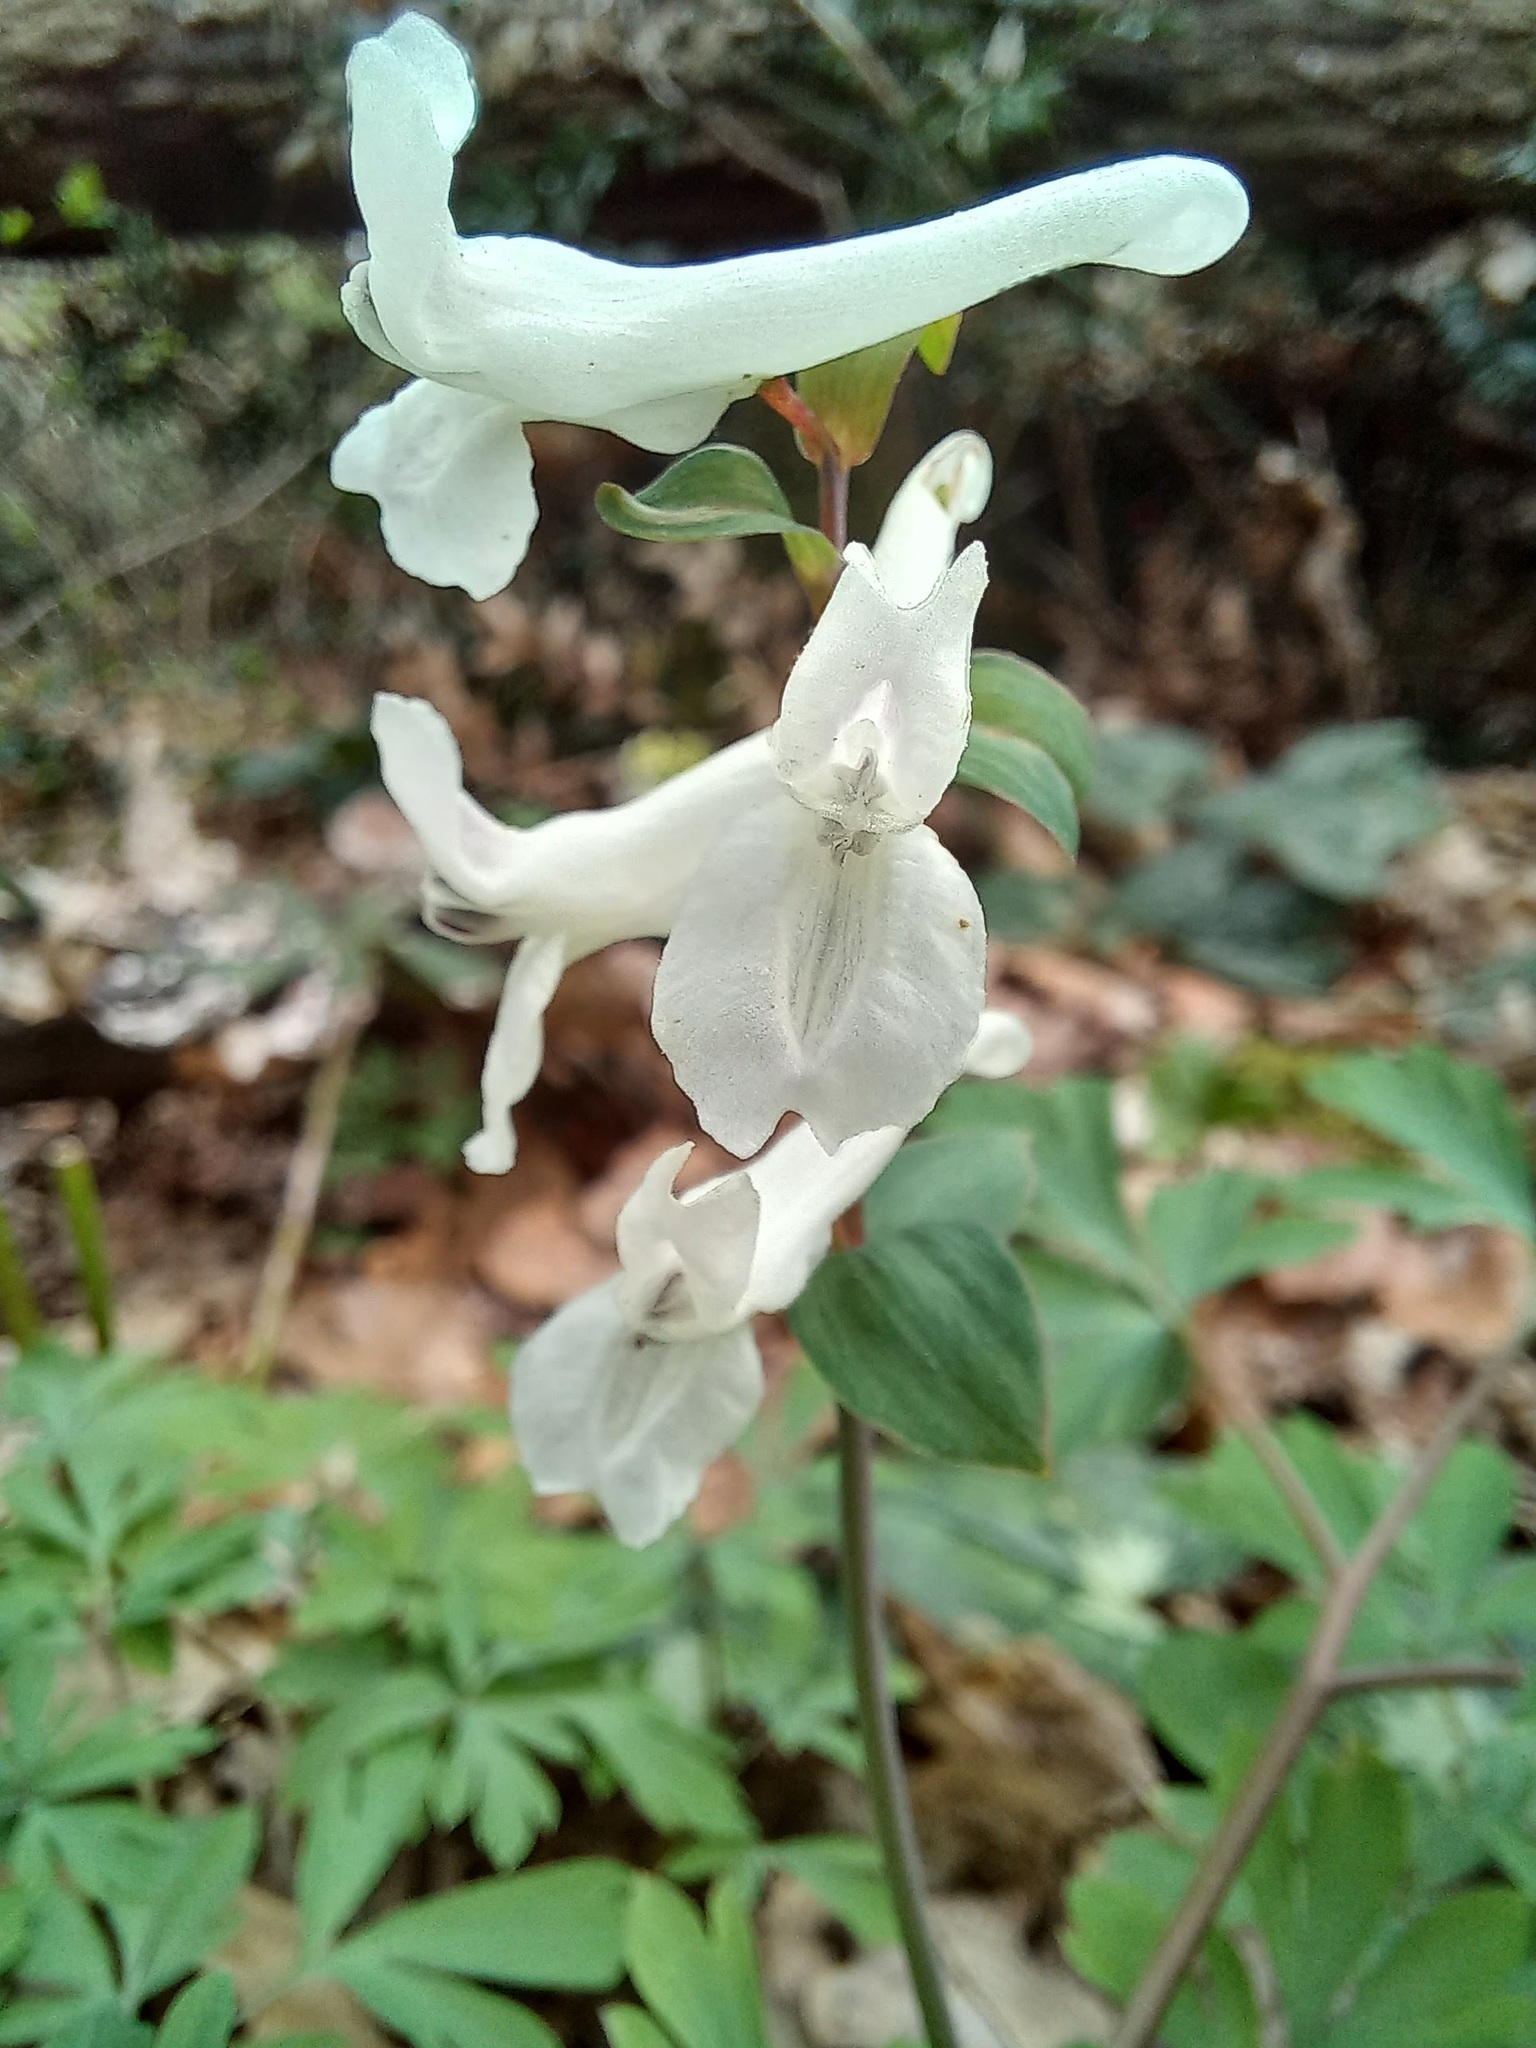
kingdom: Plantae
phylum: Tracheophyta
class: Magnoliopsida
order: Ranunculales
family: Papaveraceae
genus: Corydalis
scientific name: Corydalis cava
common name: Hollowroot
